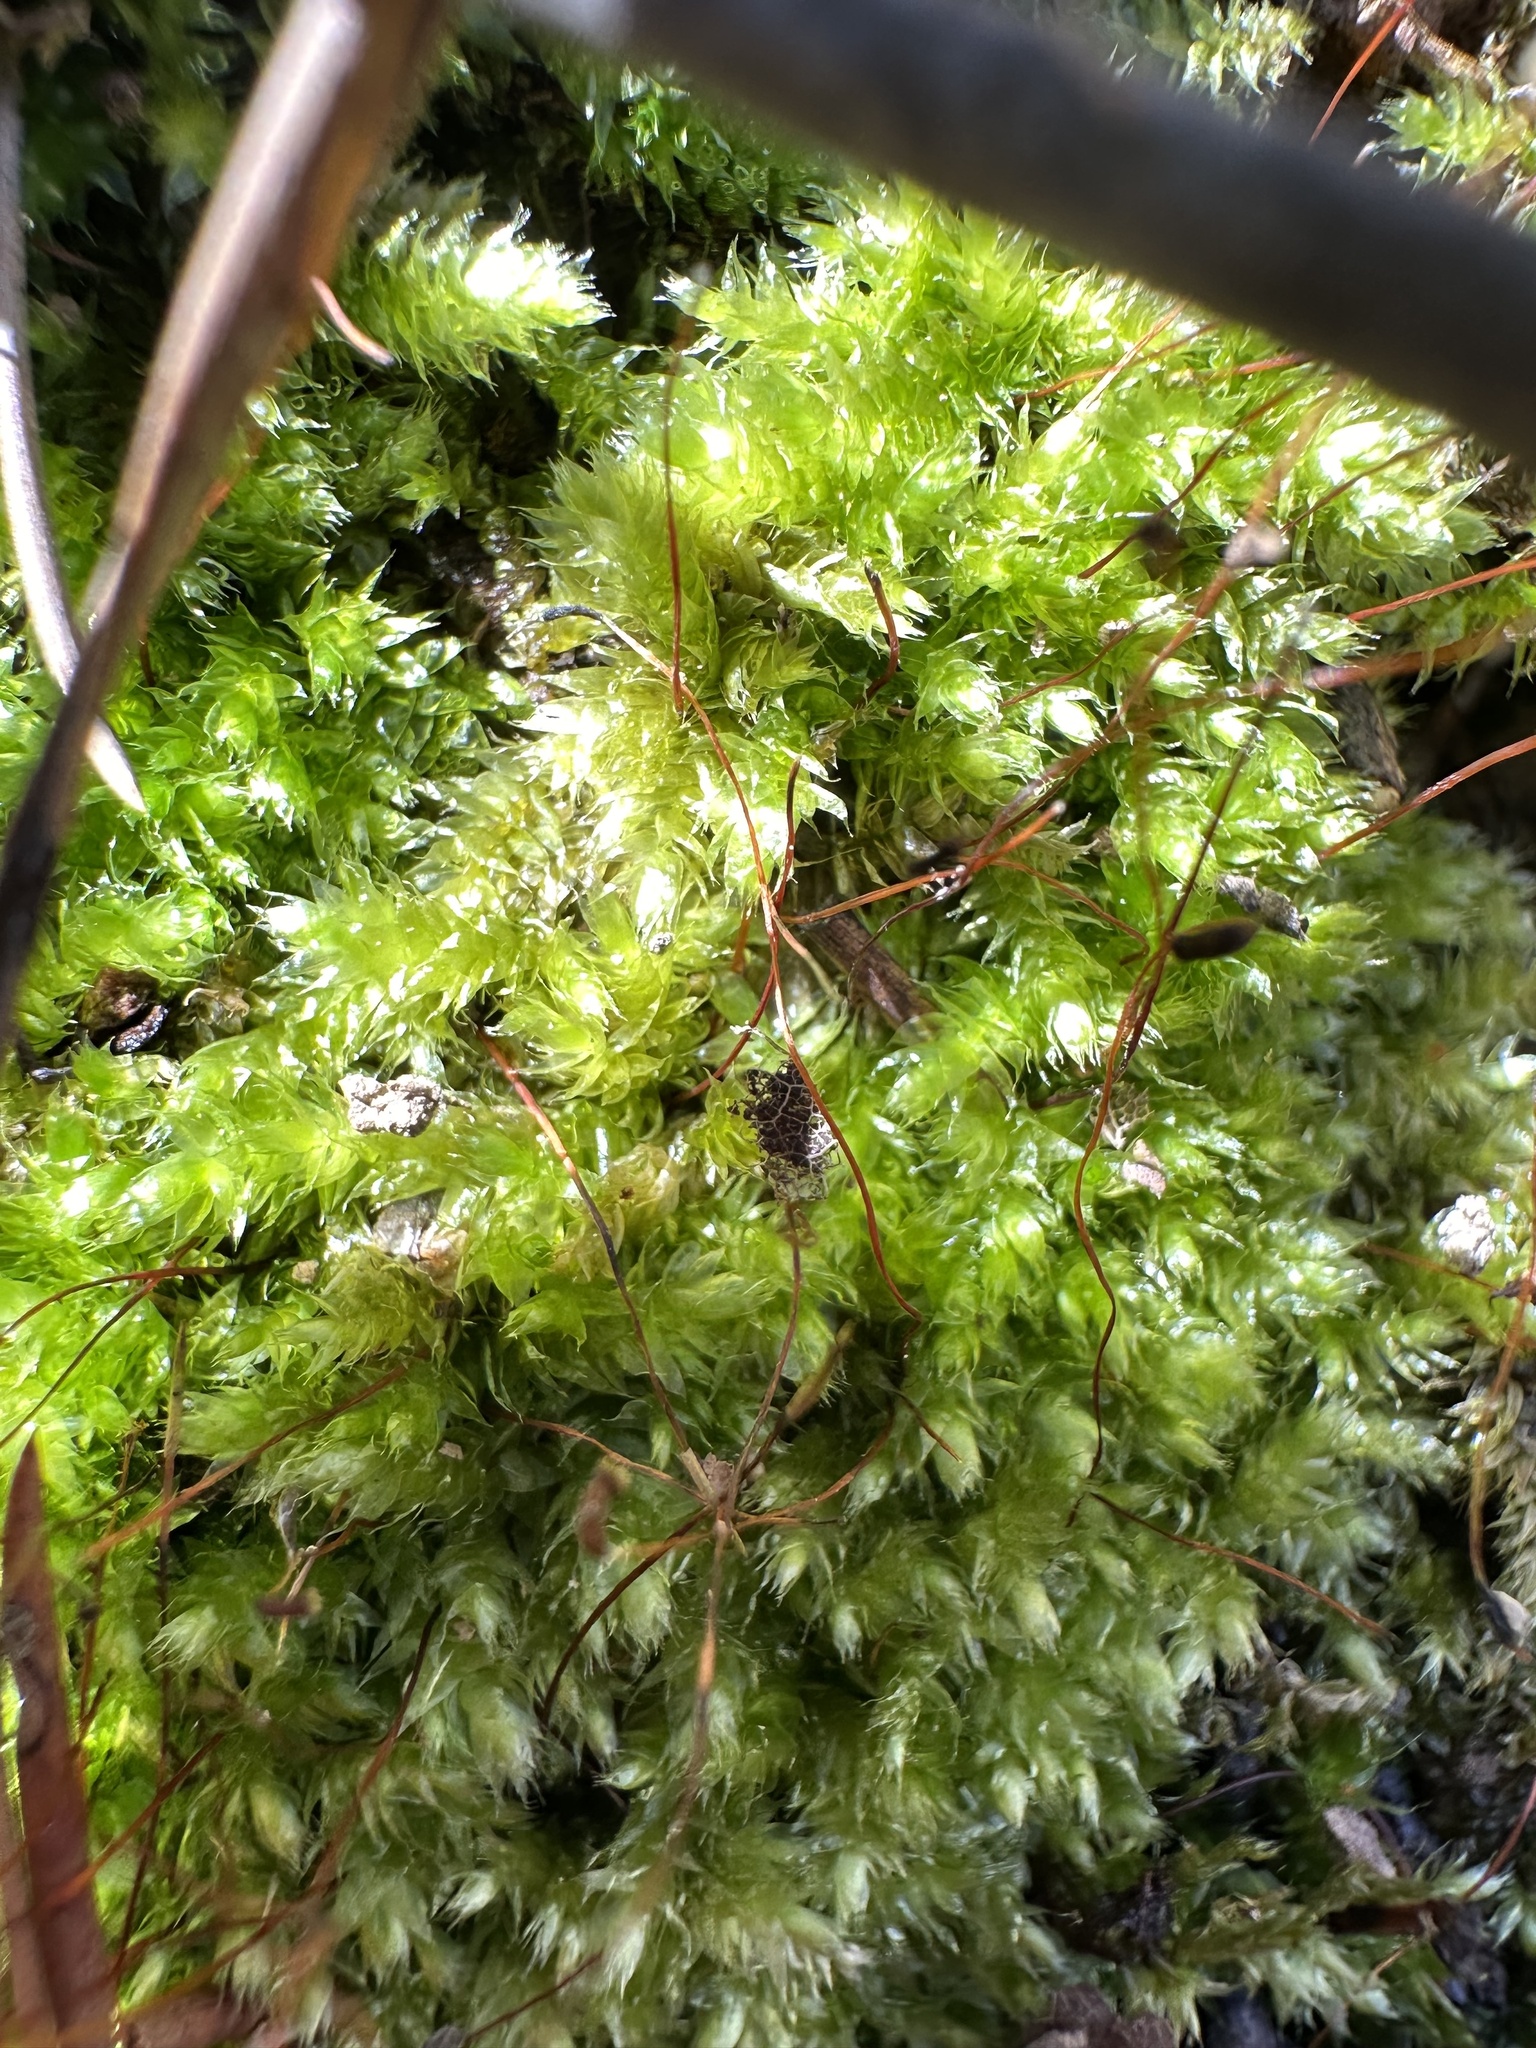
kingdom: Plantae
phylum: Bryophyta
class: Bryopsida
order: Hypnales
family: Brachytheciaceae
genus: Brachythecium
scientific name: Brachythecium rutabulum
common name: Rough-stalked feather-moss
